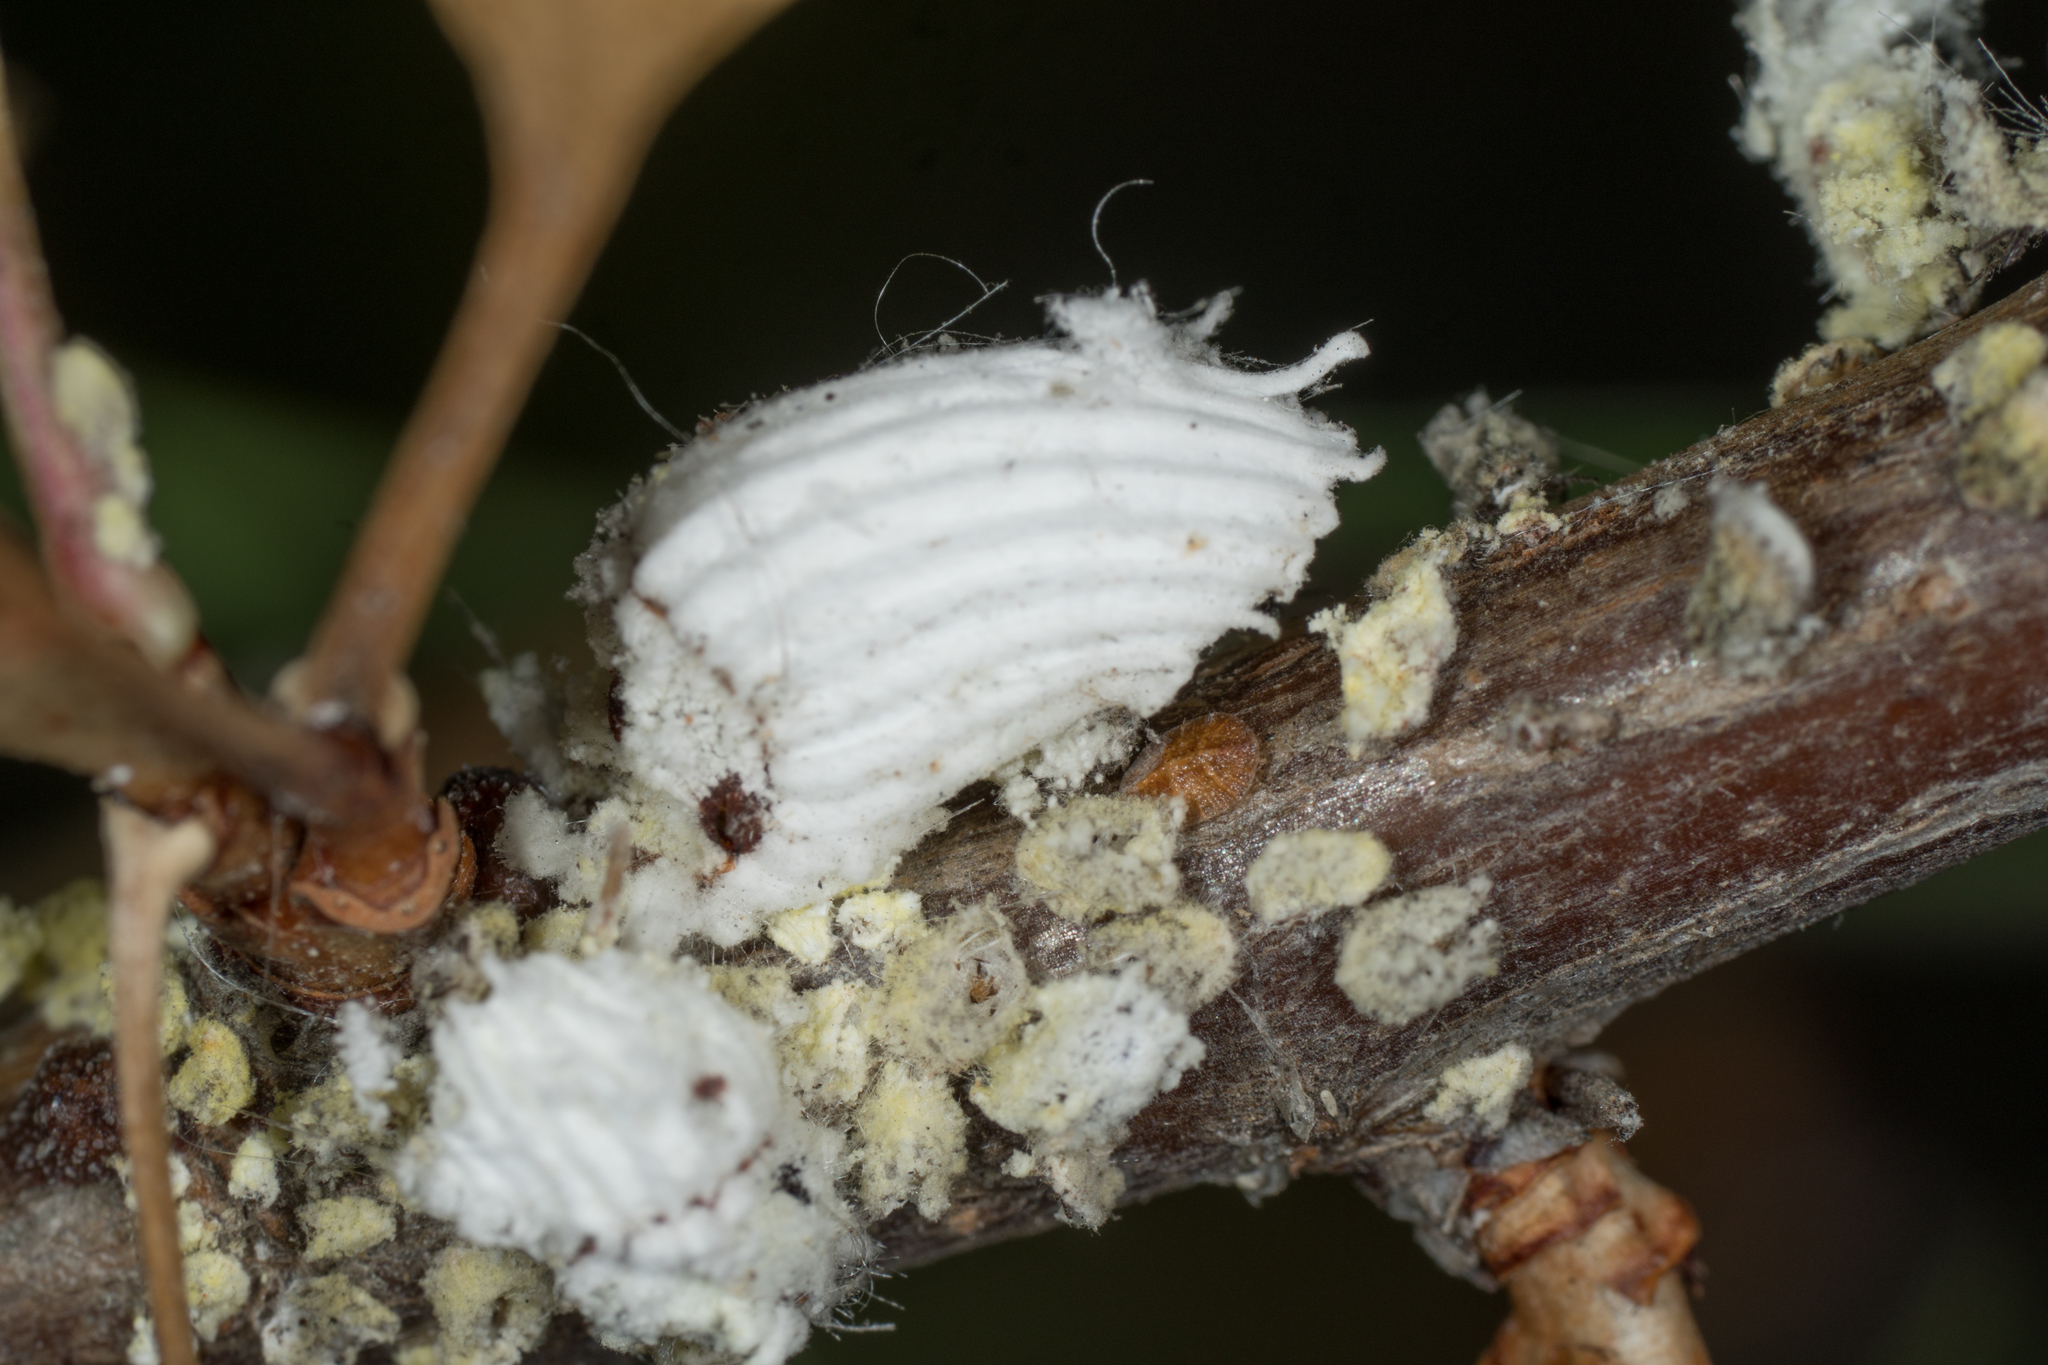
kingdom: Animalia
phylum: Arthropoda
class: Insecta
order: Hemiptera
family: Margarodidae
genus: Icerya
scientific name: Icerya purchasi
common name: Cottony cushion scale
